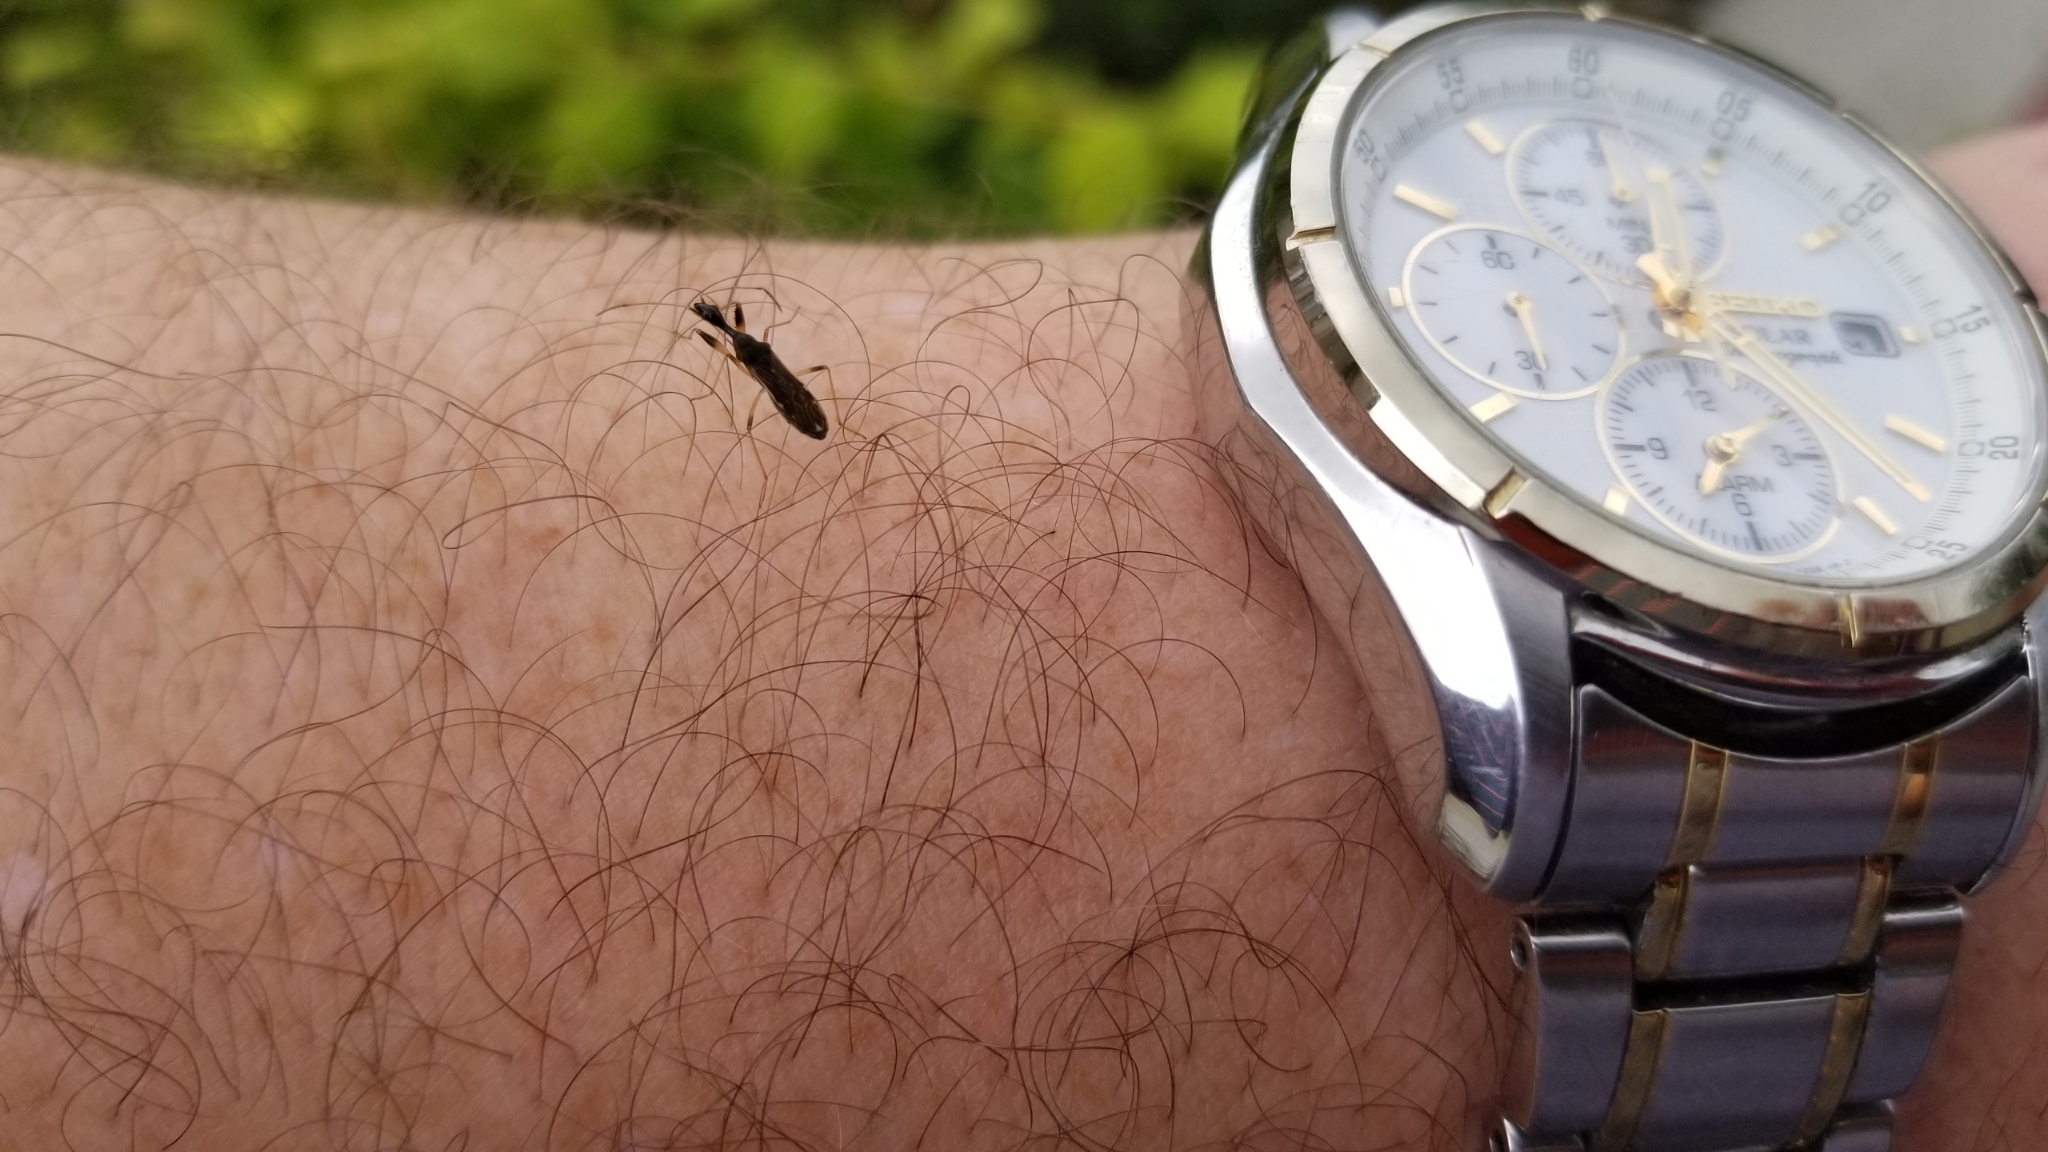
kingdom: Animalia
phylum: Arthropoda
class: Insecta
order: Hemiptera
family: Rhyparochromidae
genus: Myodocha
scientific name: Myodocha serripes
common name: Long-necked seed bug
